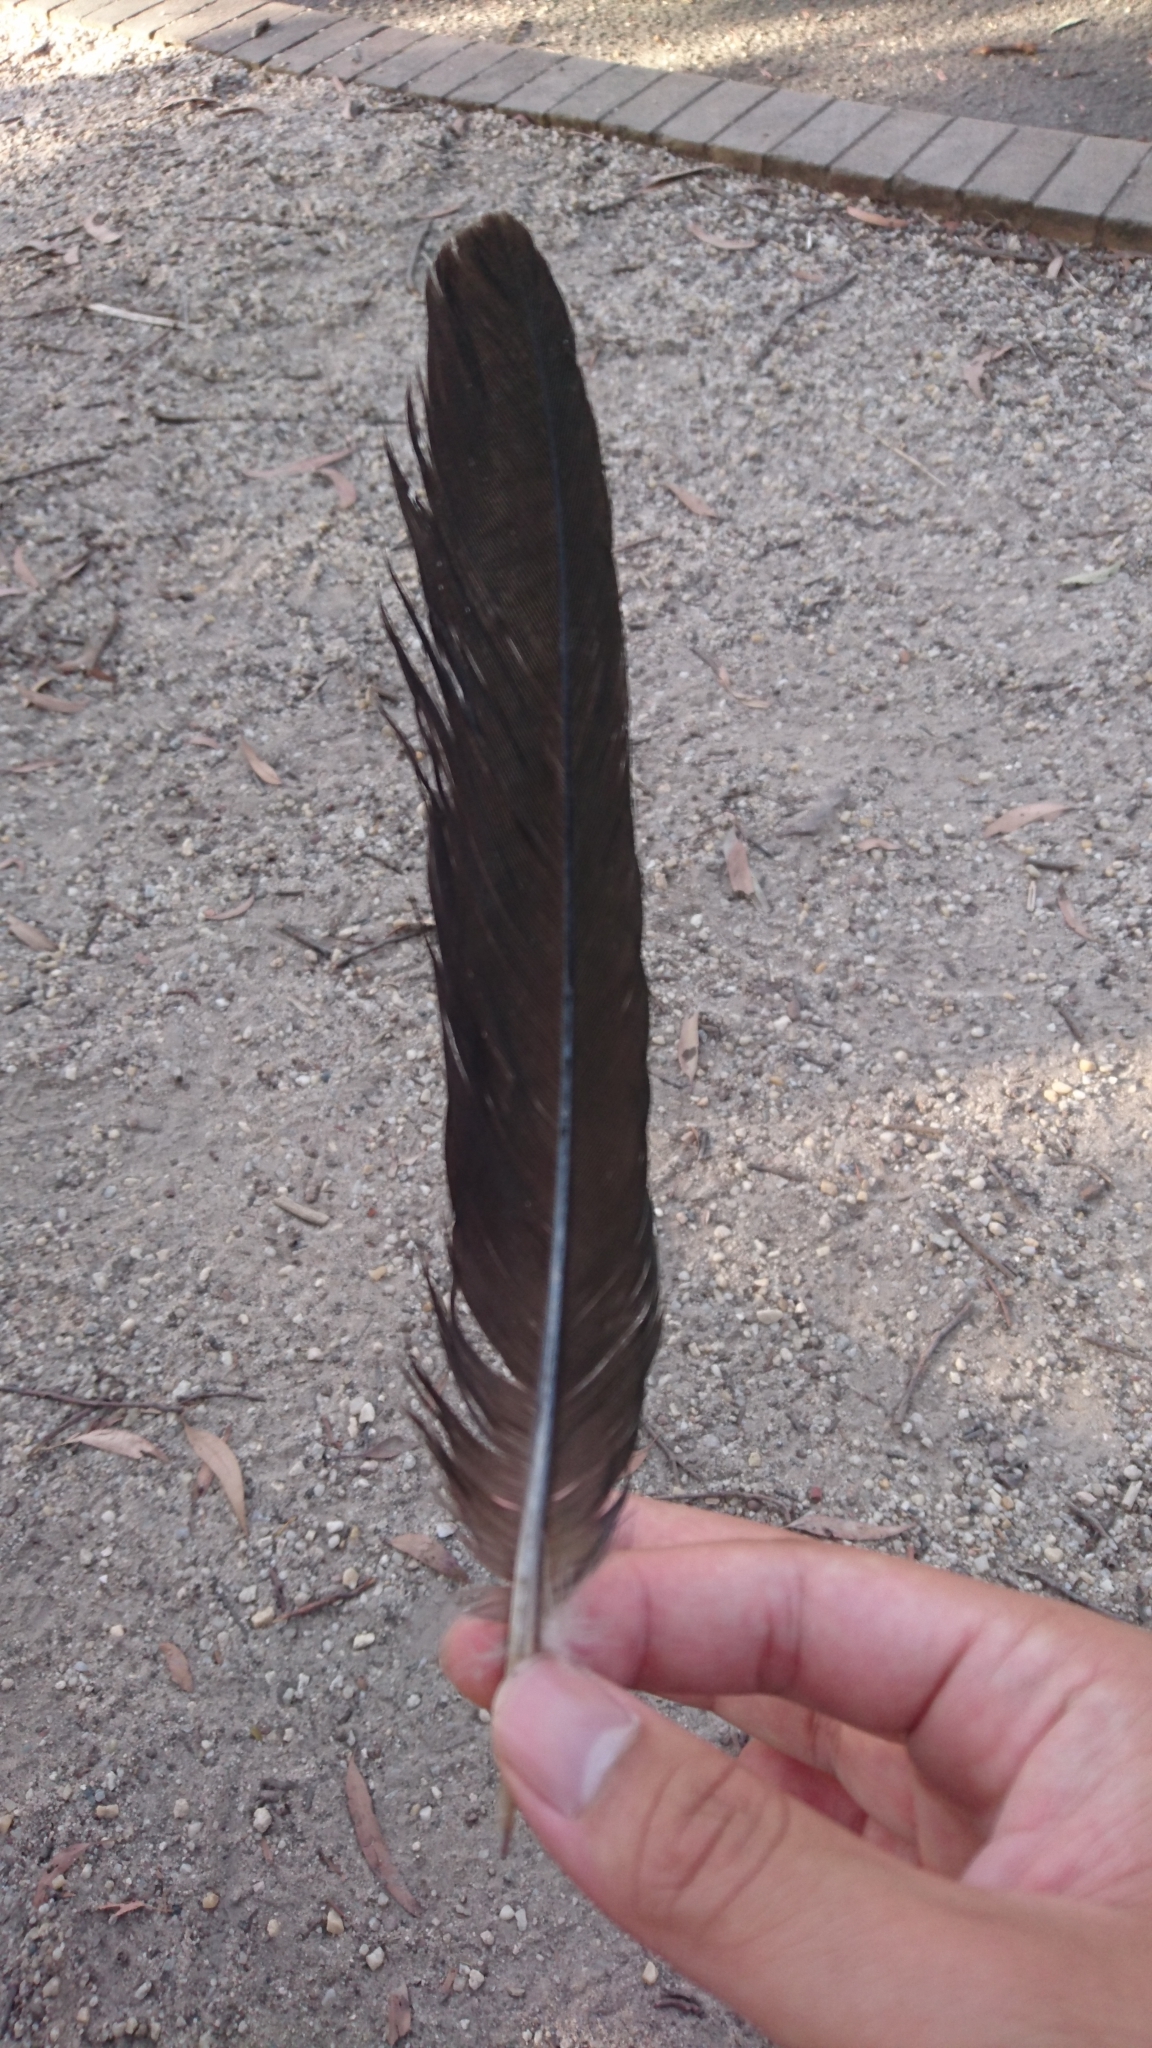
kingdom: Animalia
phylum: Chordata
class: Aves
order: Psittaciformes
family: Psittacidae
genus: Alisterus
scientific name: Alisterus scapularis
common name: Australian king parrot
